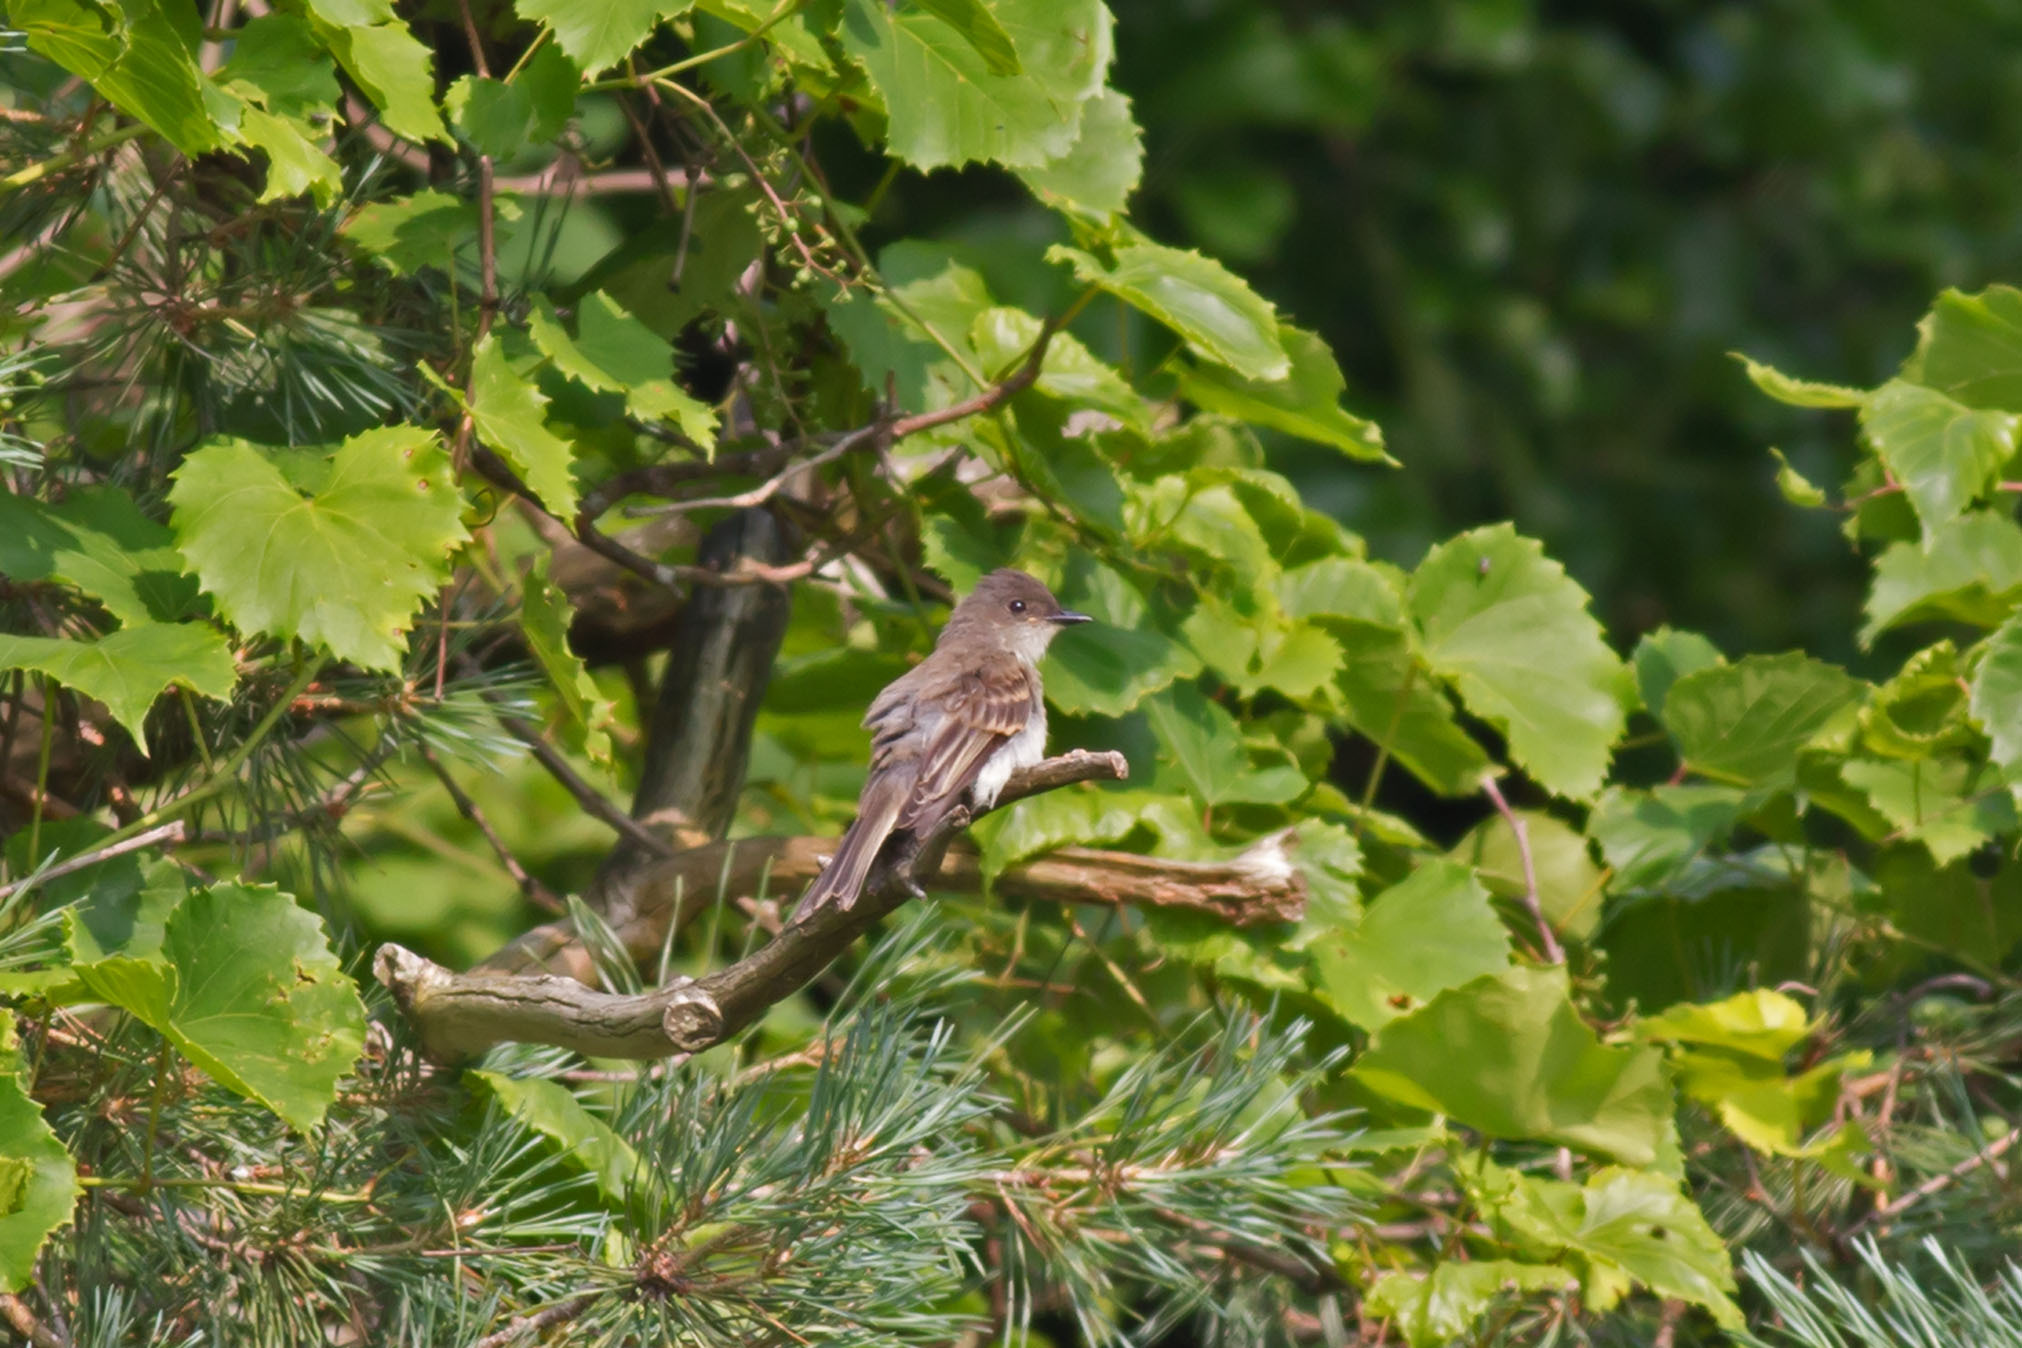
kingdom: Animalia
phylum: Chordata
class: Aves
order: Passeriformes
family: Tyrannidae
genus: Sayornis
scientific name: Sayornis phoebe
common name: Eastern phoebe
